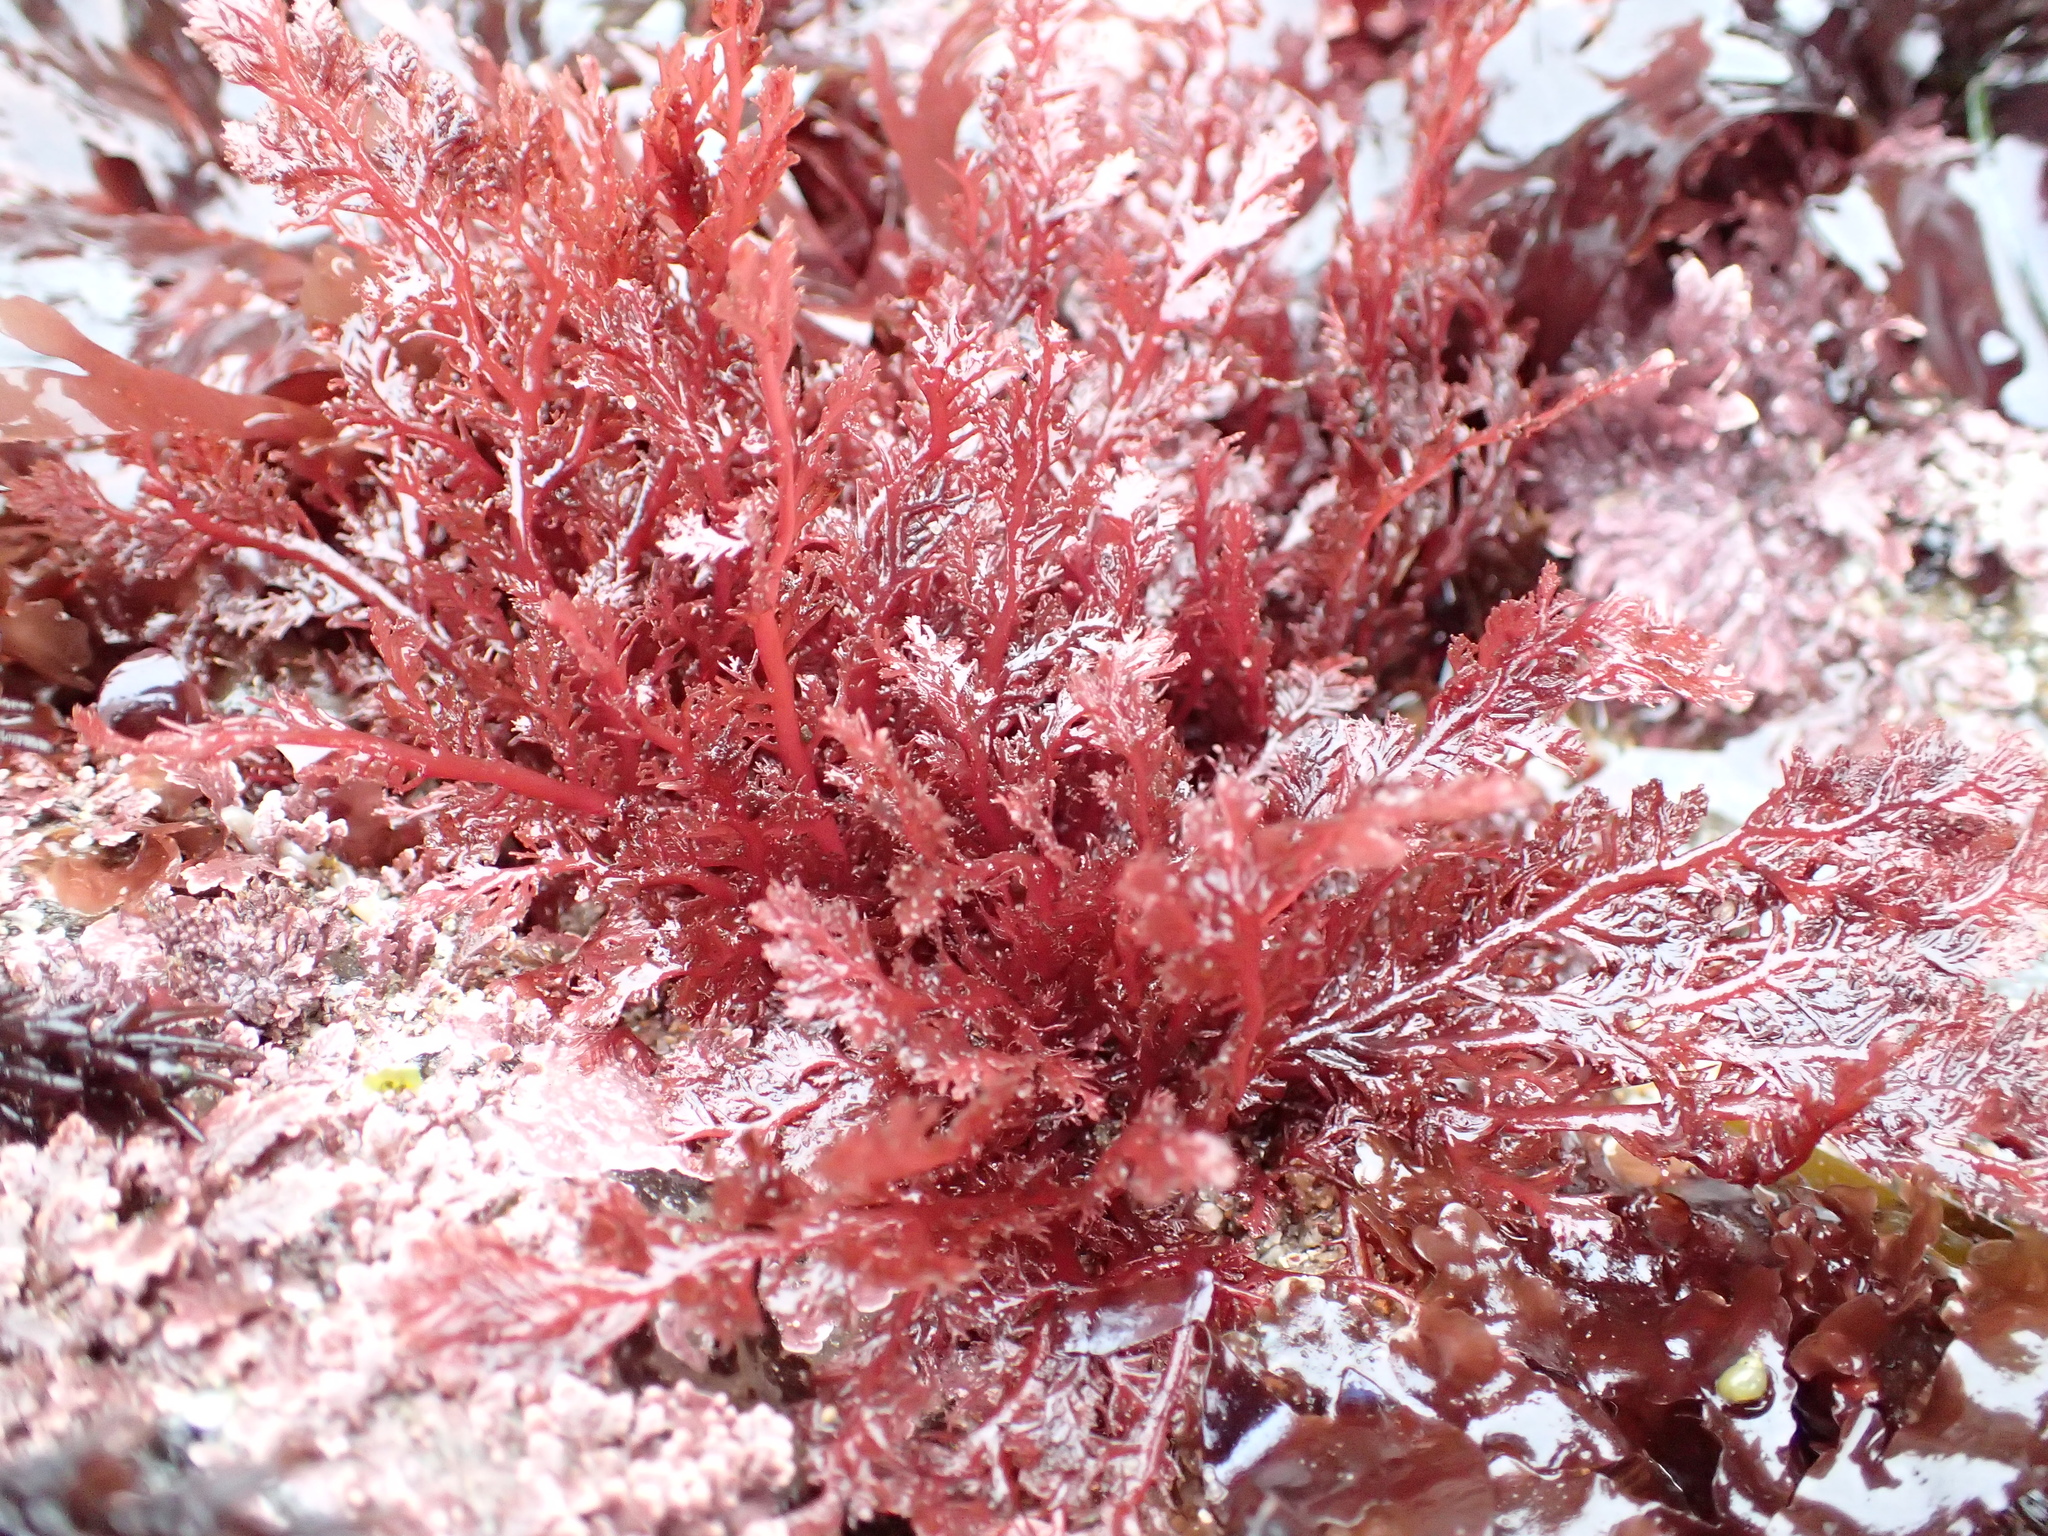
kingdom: Plantae
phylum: Rhodophyta
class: Florideophyceae
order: Plocamiales
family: Plocamiaceae
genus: Plocamium
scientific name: Plocamium cartilagineum
